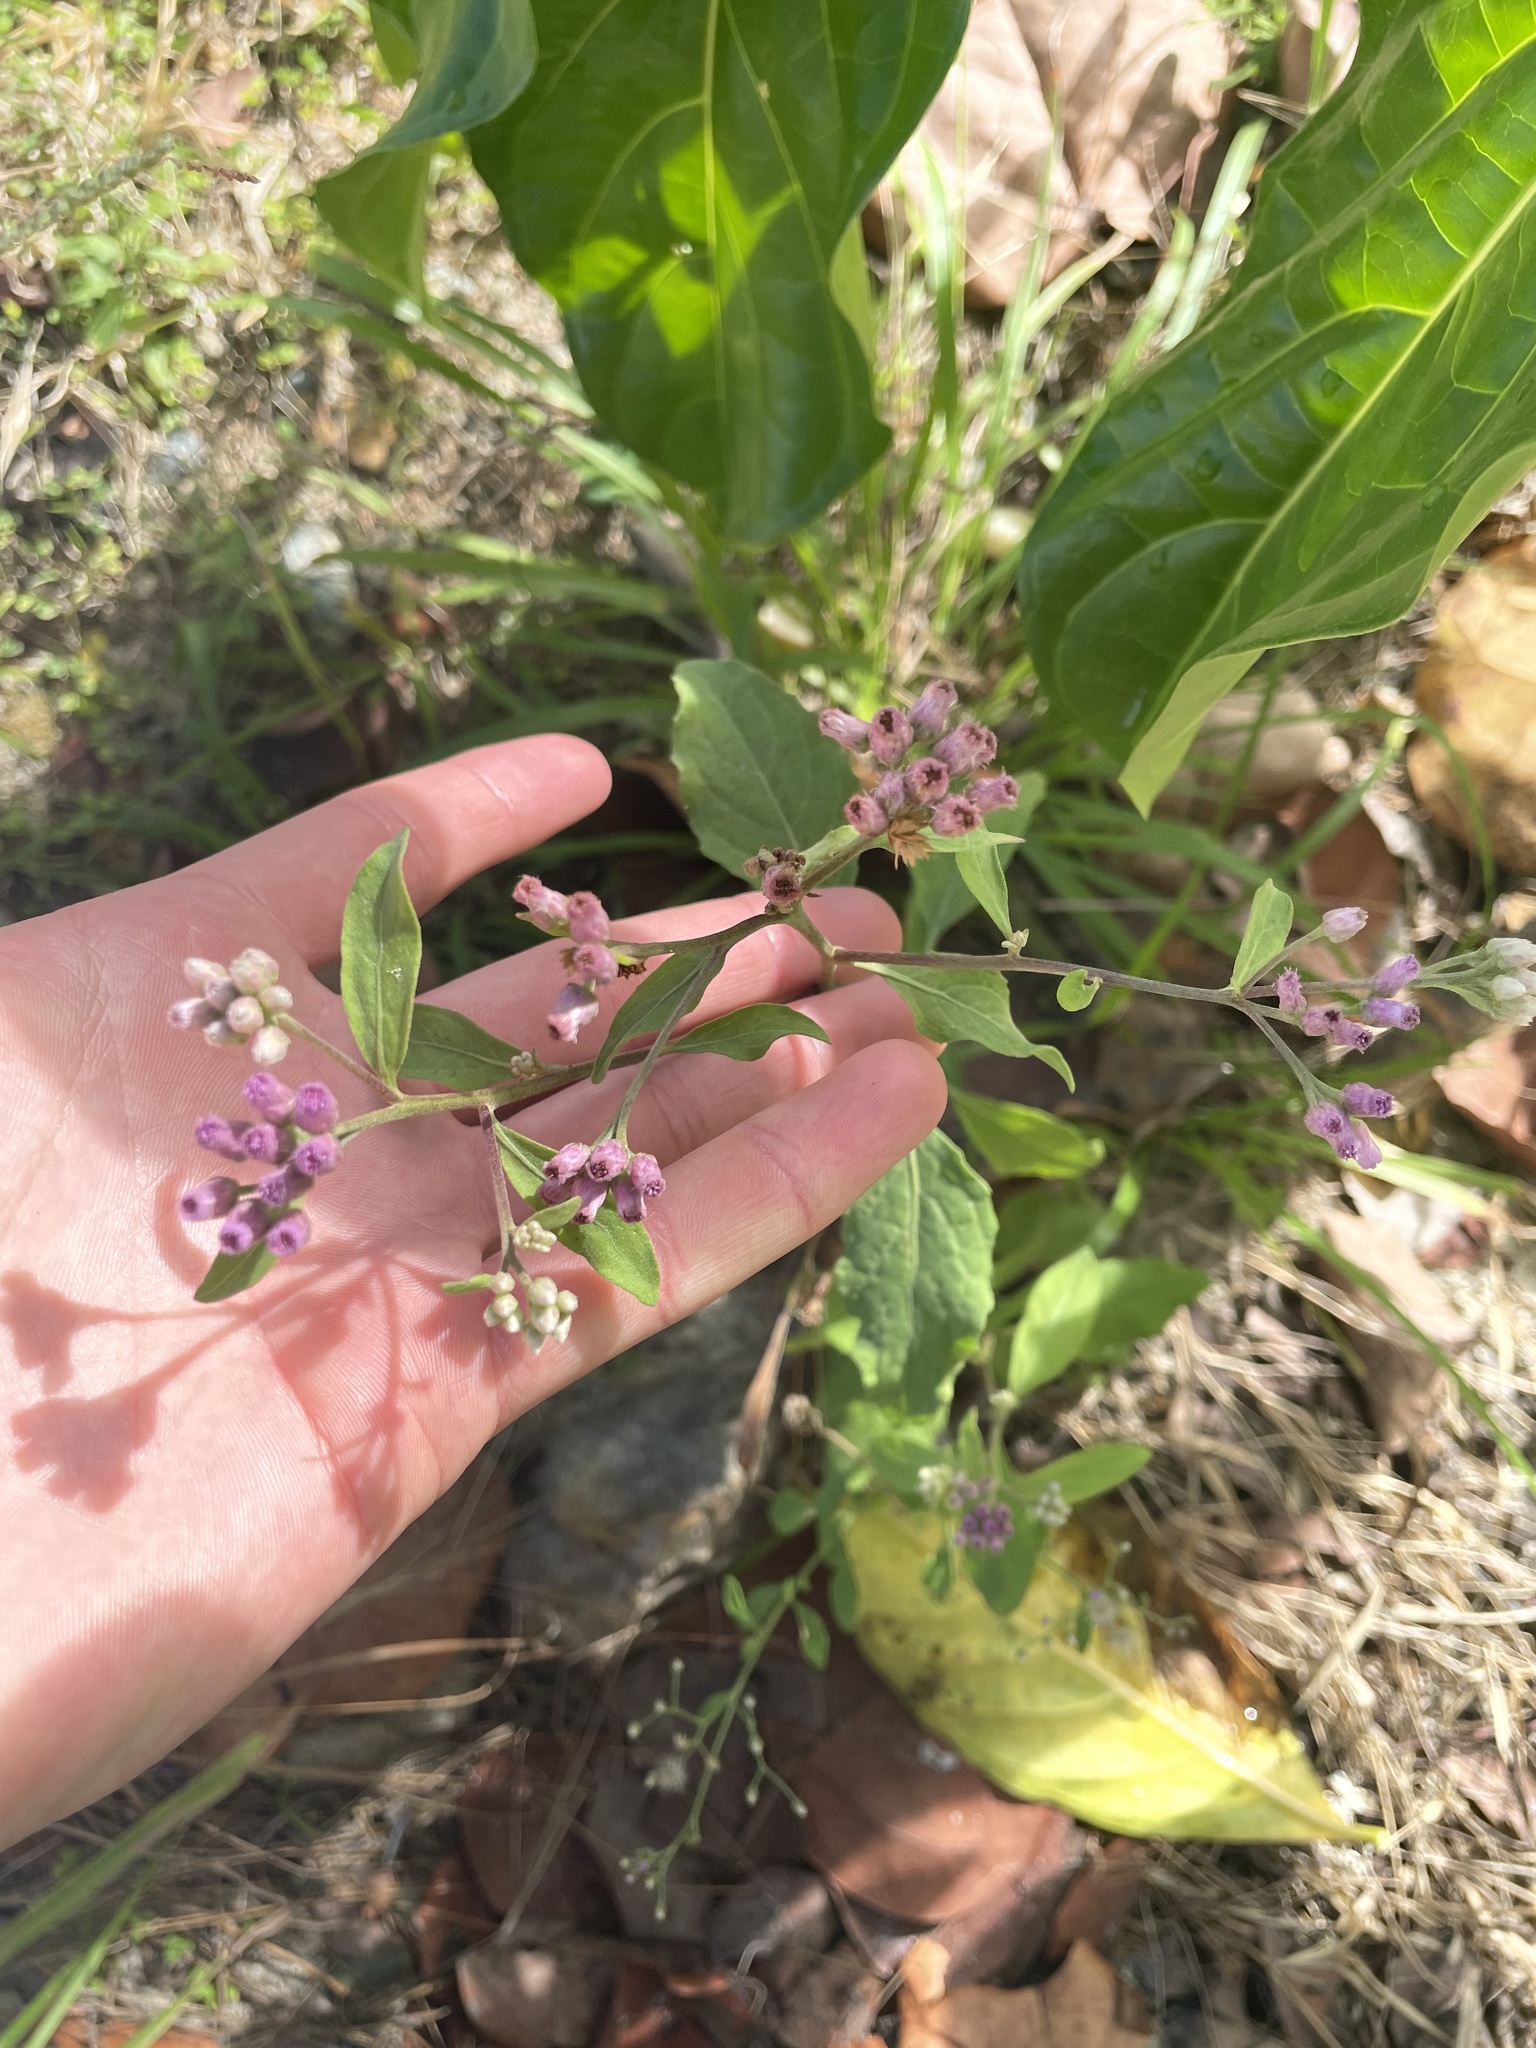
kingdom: Plantae
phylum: Tracheophyta
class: Magnoliopsida
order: Asterales
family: Asteraceae
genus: Pluchea
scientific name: Pluchea odorata
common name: Saltmarsh fleabane
